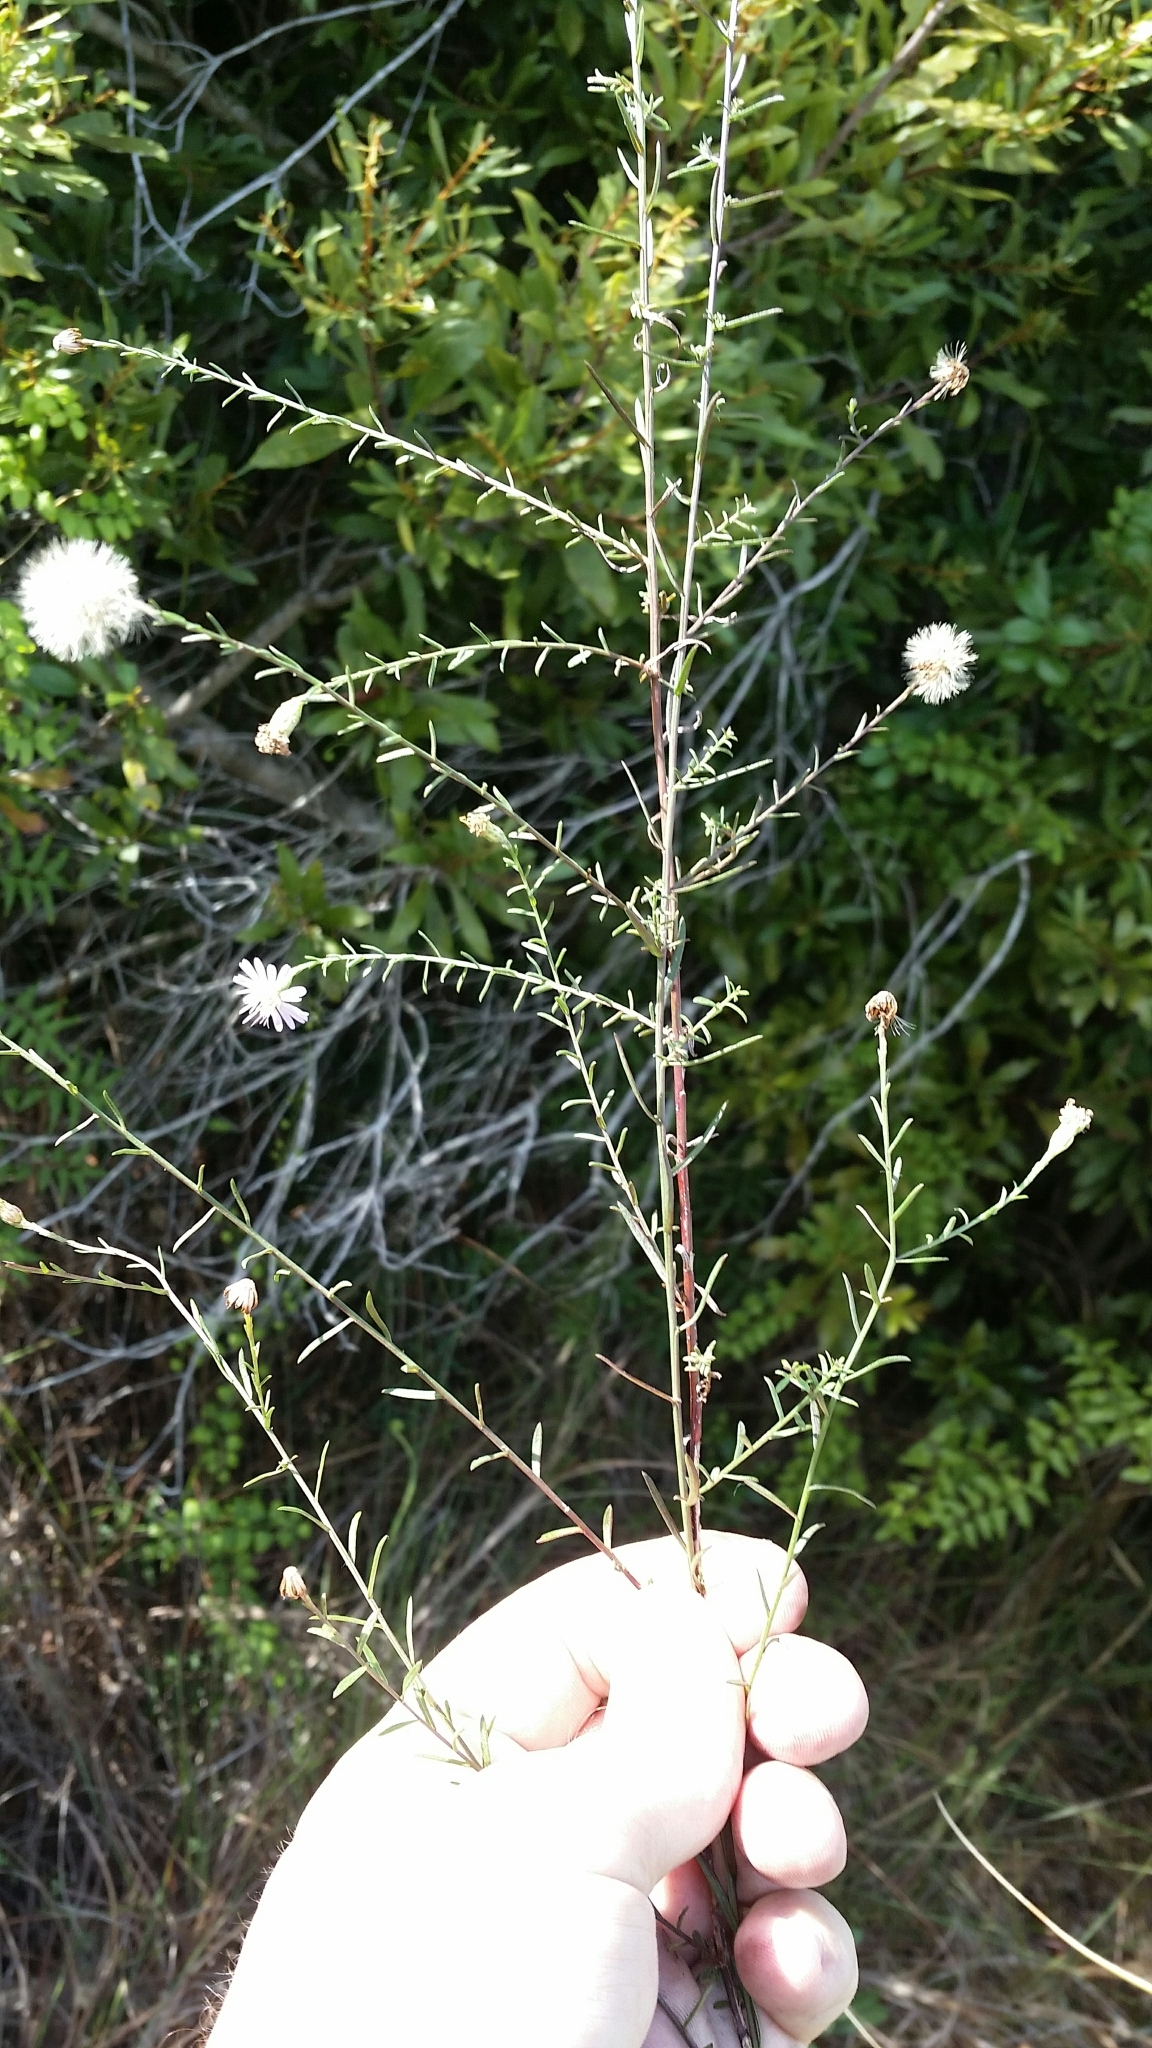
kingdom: Plantae
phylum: Tracheophyta
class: Magnoliopsida
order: Asterales
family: Asteraceae
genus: Symphyotrichum
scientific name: Symphyotrichum dumosum
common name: Bushy aster
